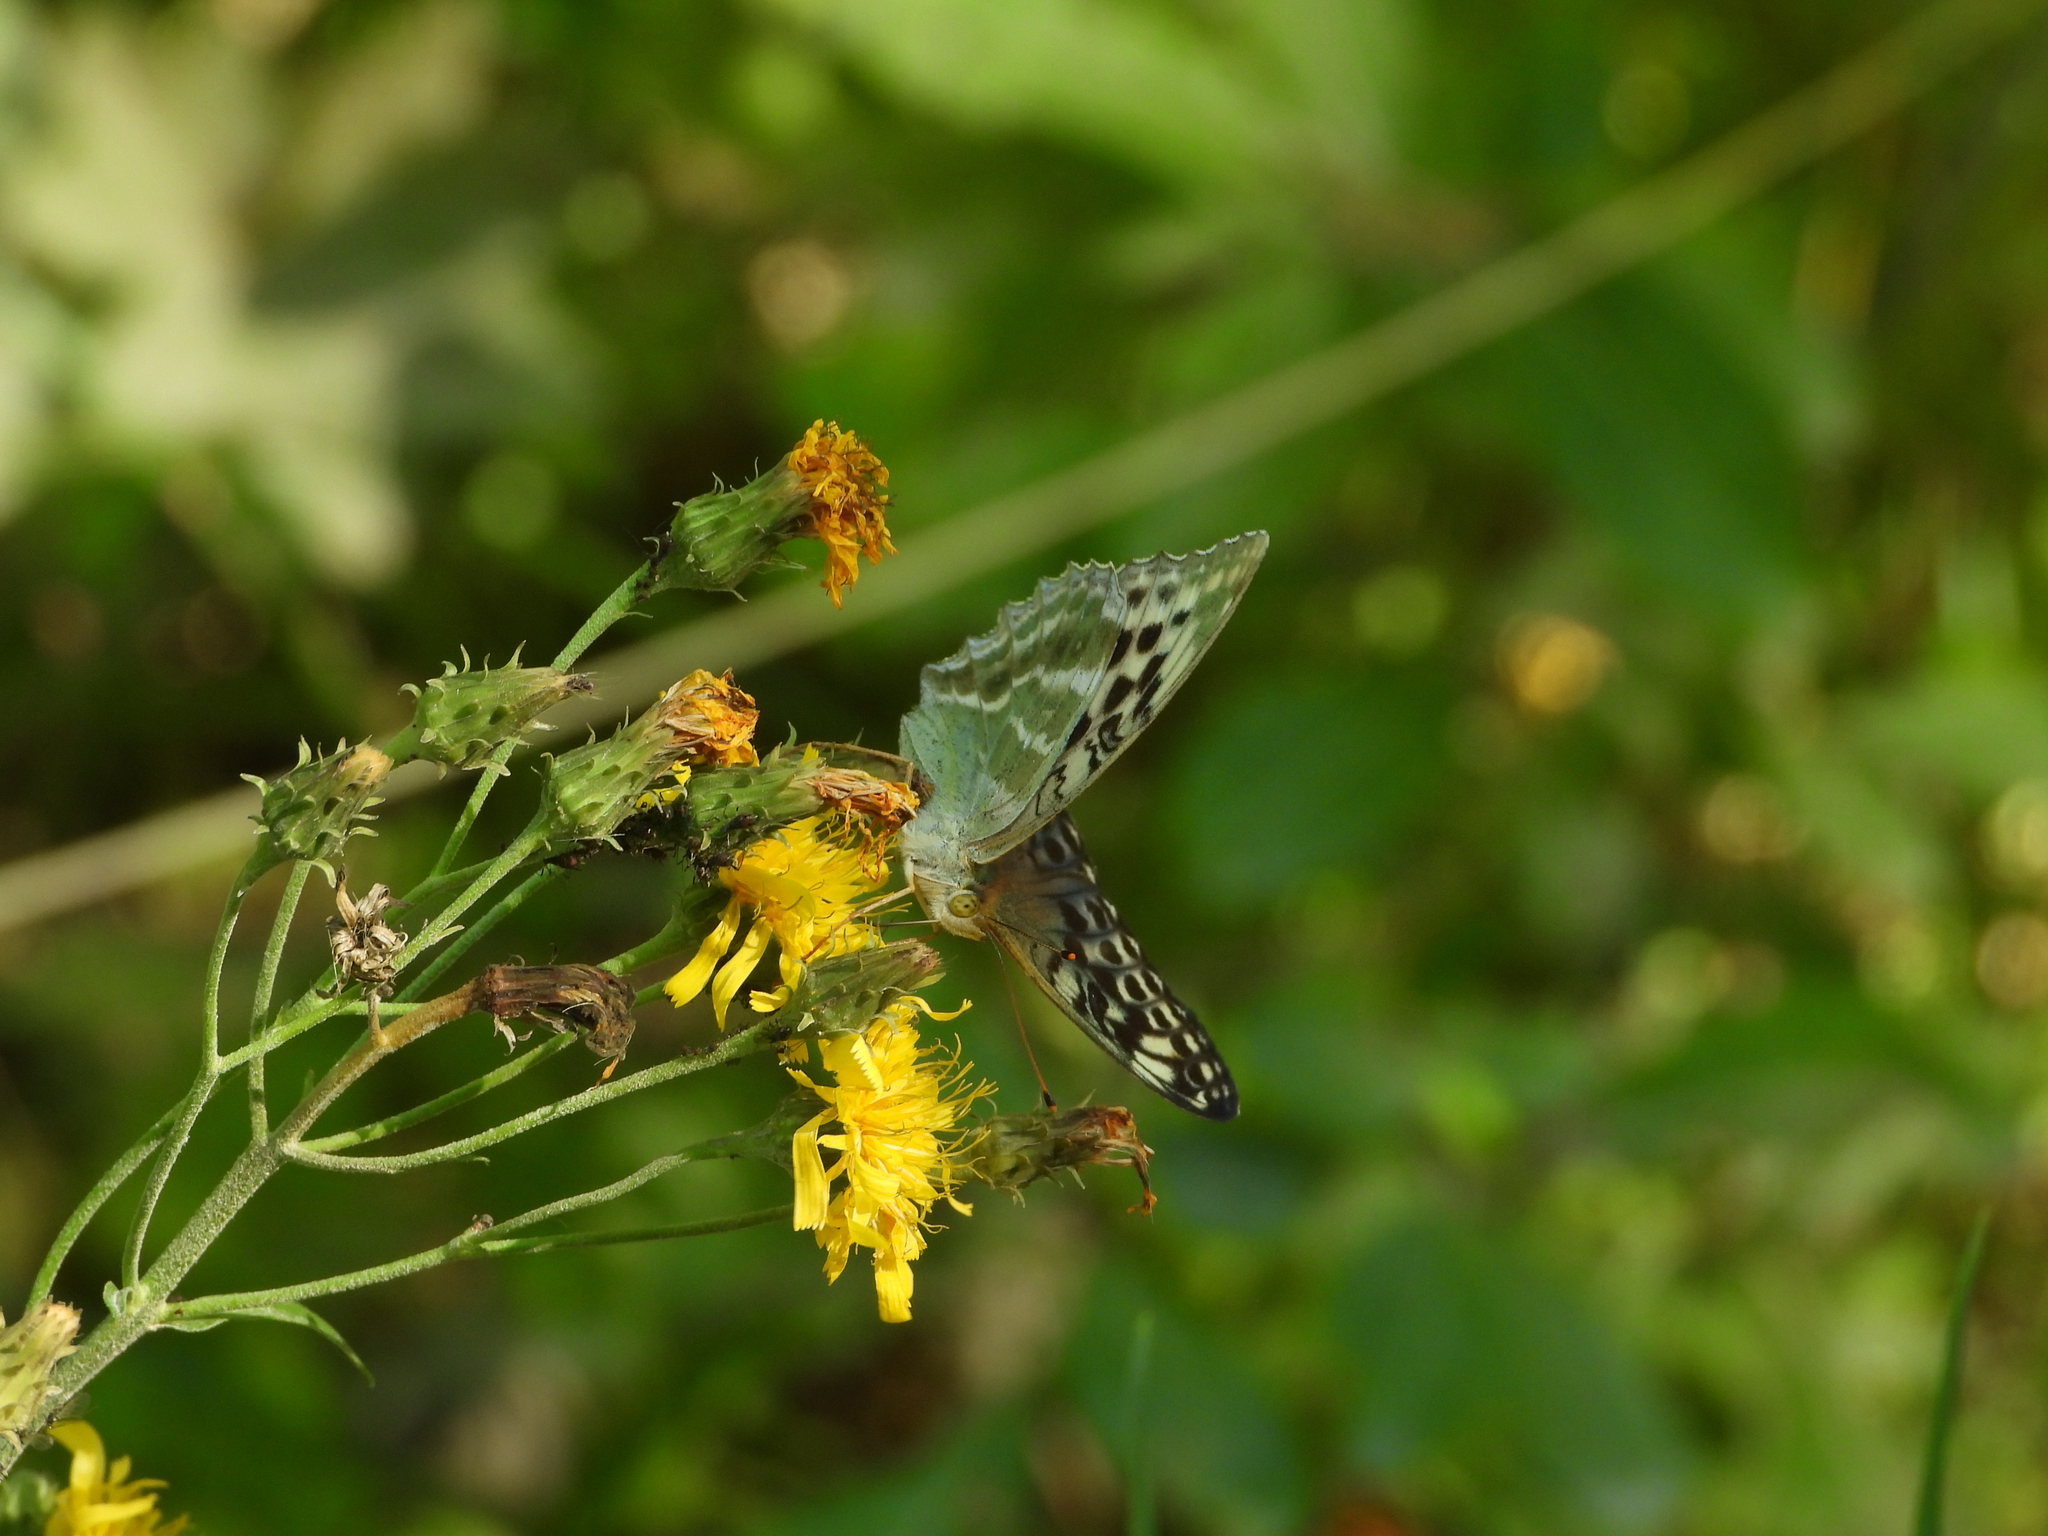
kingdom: Animalia
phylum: Arthropoda
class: Insecta
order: Lepidoptera
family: Nymphalidae
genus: Argynnis
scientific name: Argynnis paphia
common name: Silver-washed fritillary
